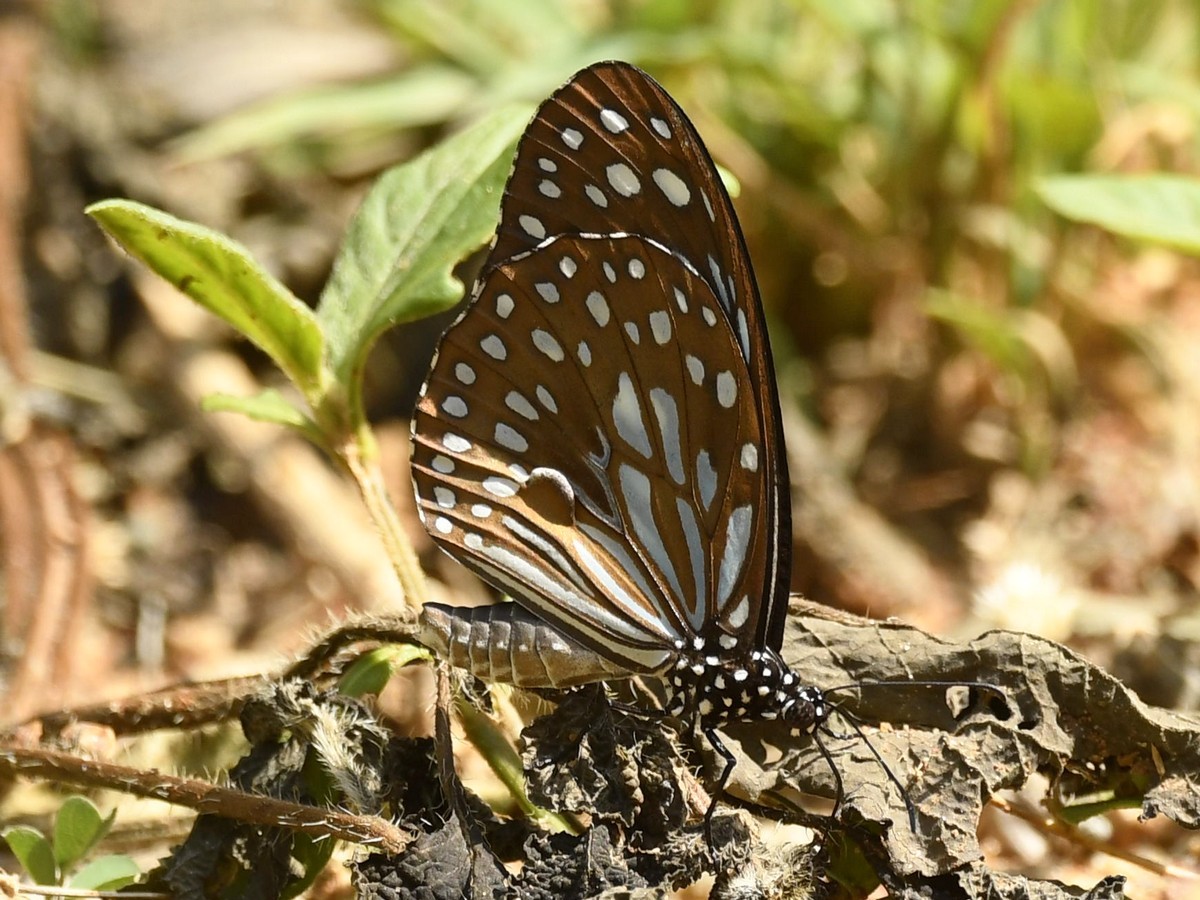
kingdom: Animalia
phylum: Arthropoda
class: Insecta
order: Lepidoptera
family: Nymphalidae
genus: Tirumala
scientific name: Tirumala septentrionis
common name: Dark blue tiger butterfly
